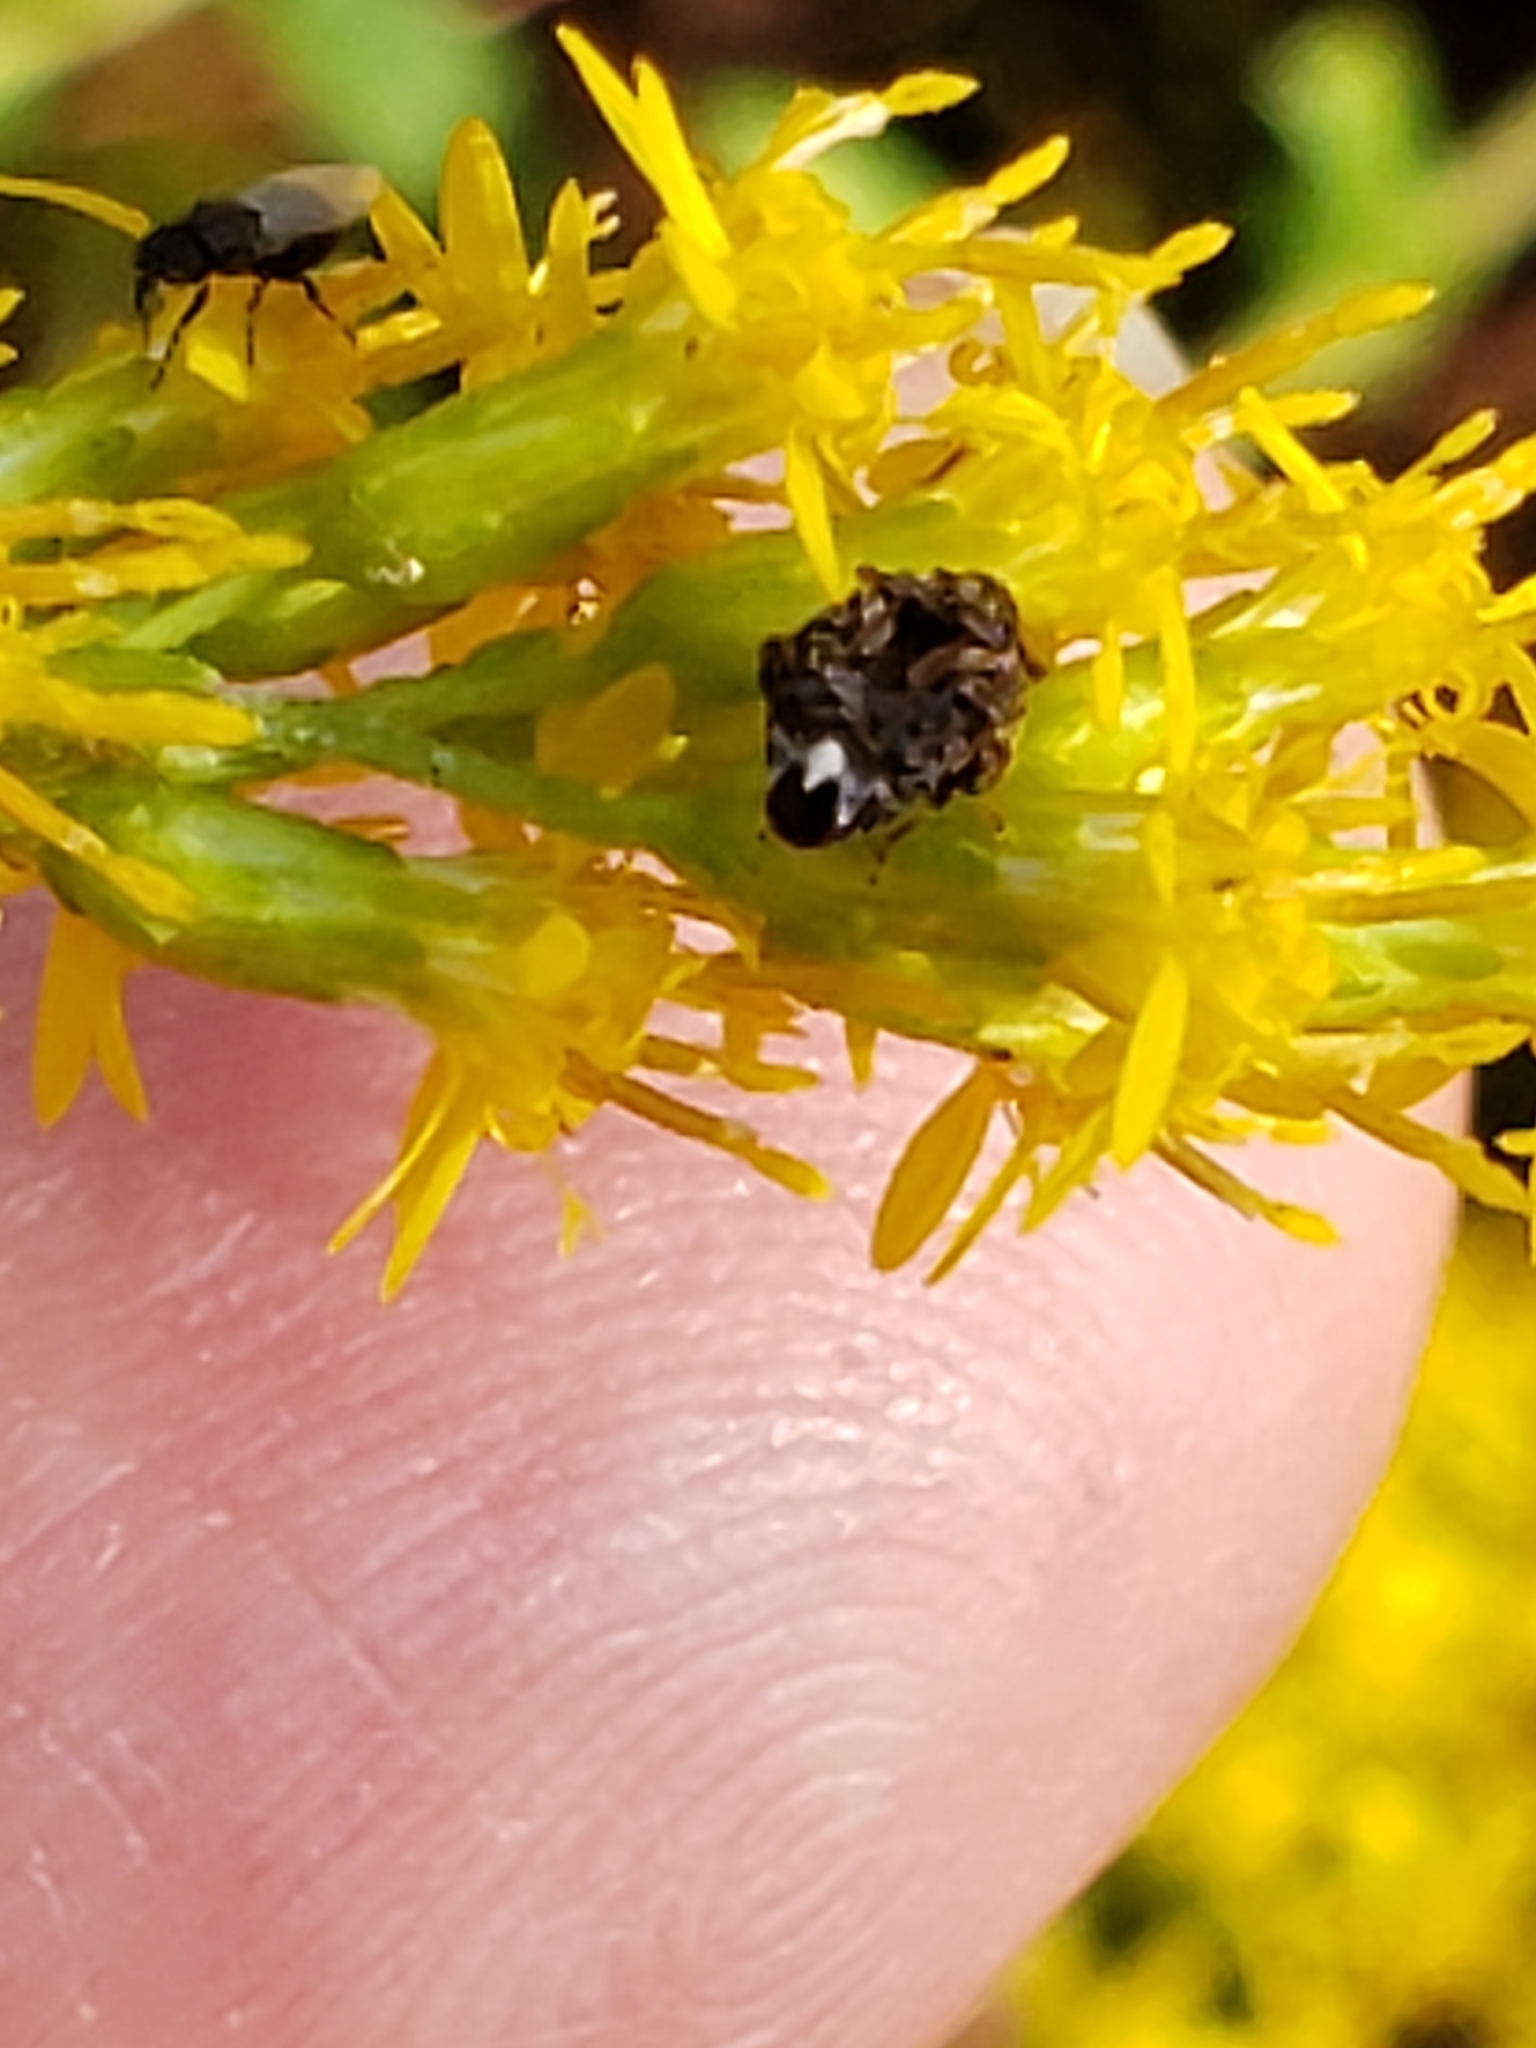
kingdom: Animalia
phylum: Arthropoda
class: Insecta
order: Coleoptera
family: Chrysomelidae
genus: Gibbobruchus
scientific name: Gibbobruchus mimus
